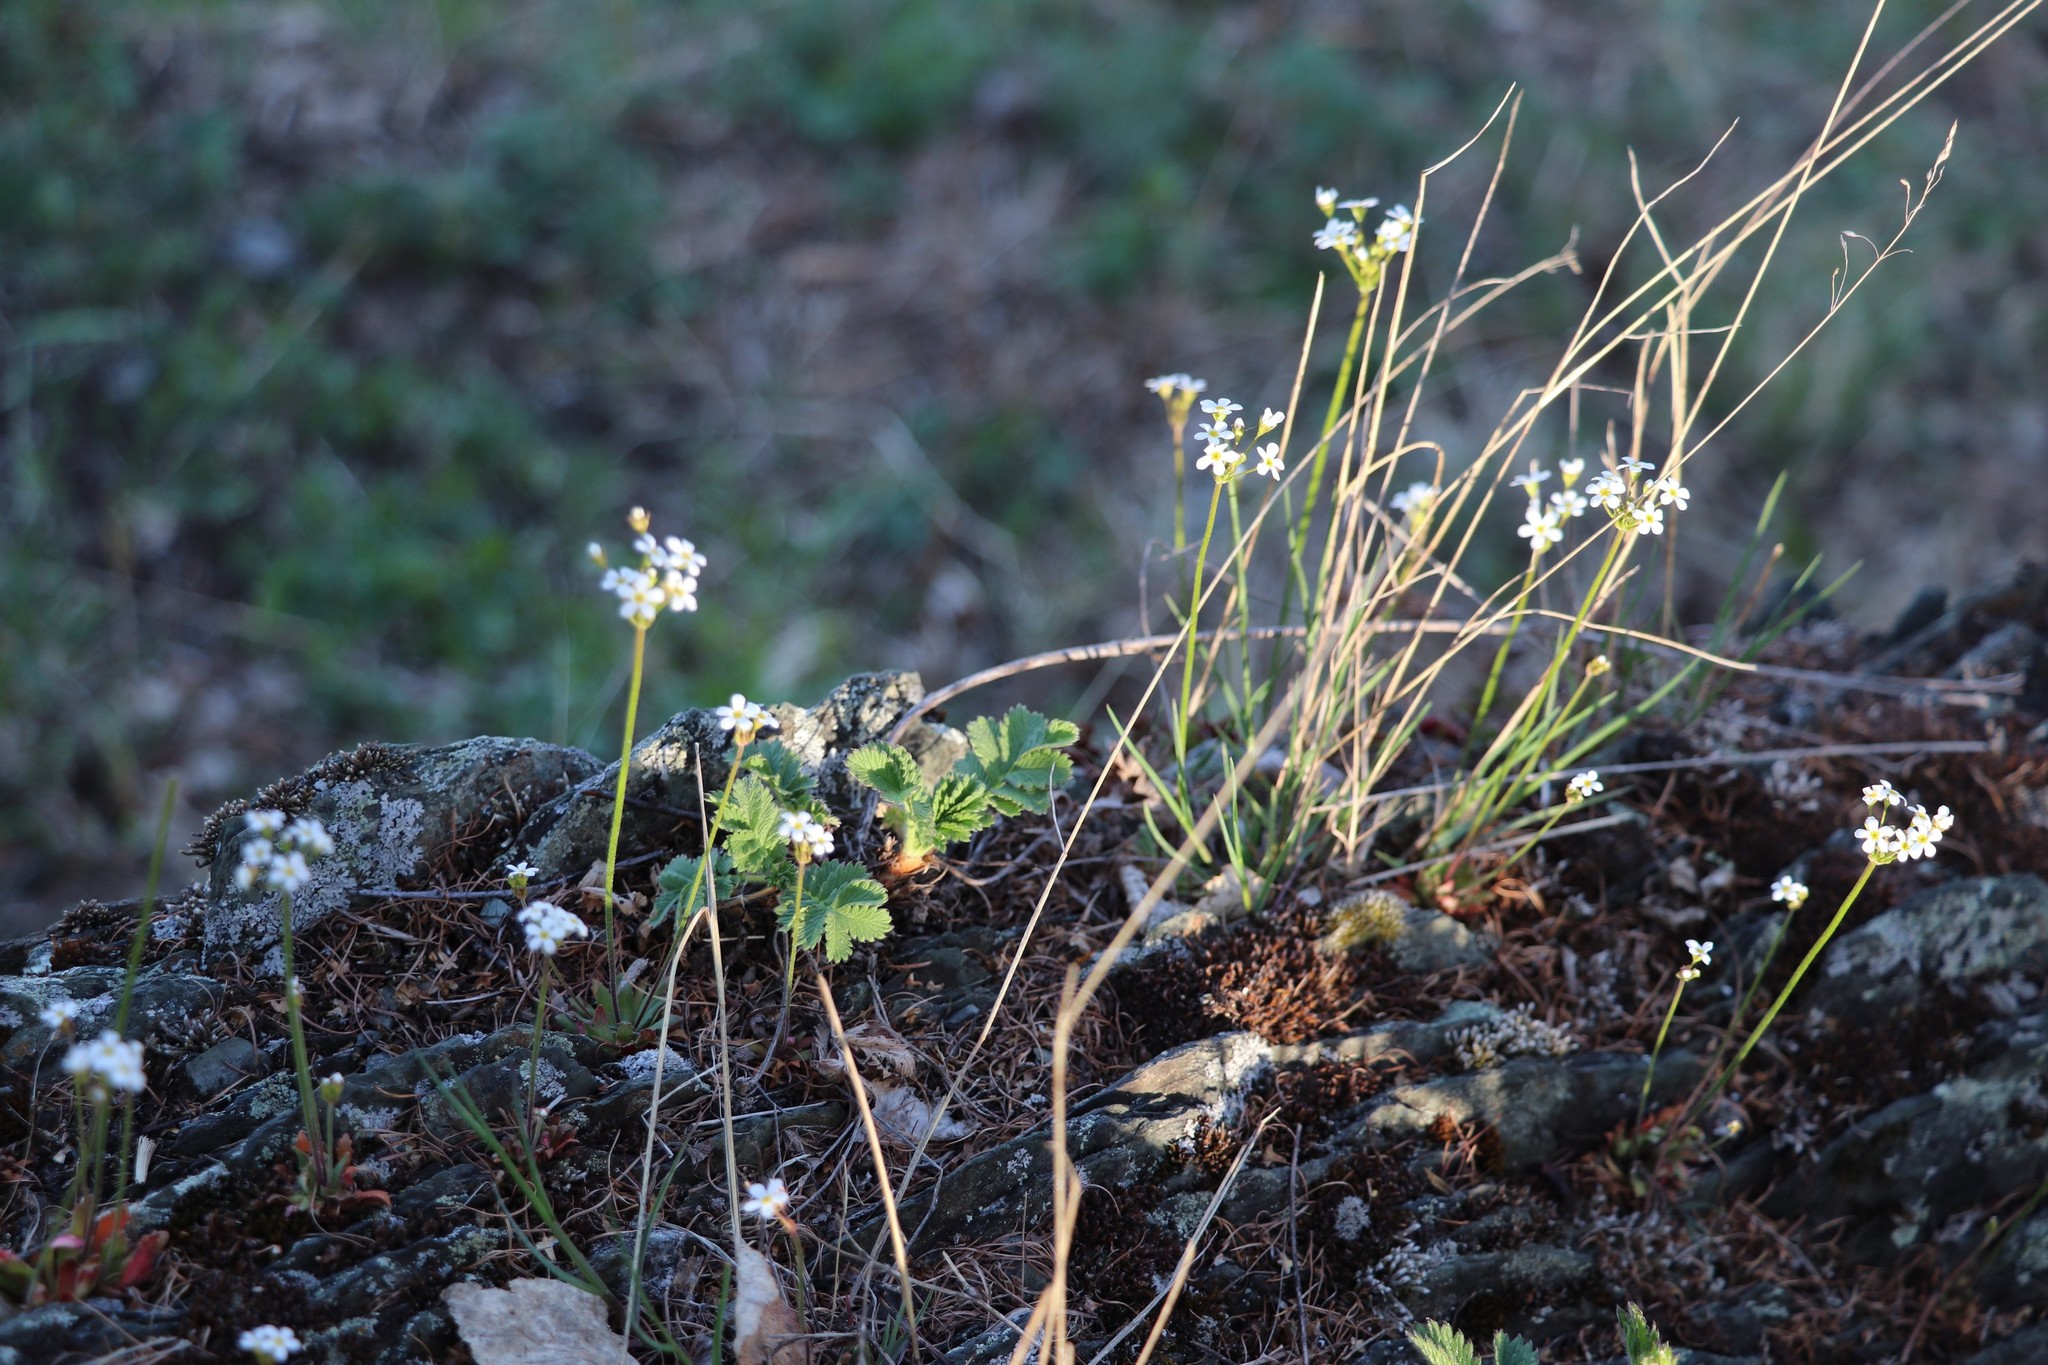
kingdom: Plantae
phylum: Tracheophyta
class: Magnoliopsida
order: Ericales
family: Primulaceae
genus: Androsace
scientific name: Androsace septentrionalis
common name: Hairy northern fairy-candelabra
